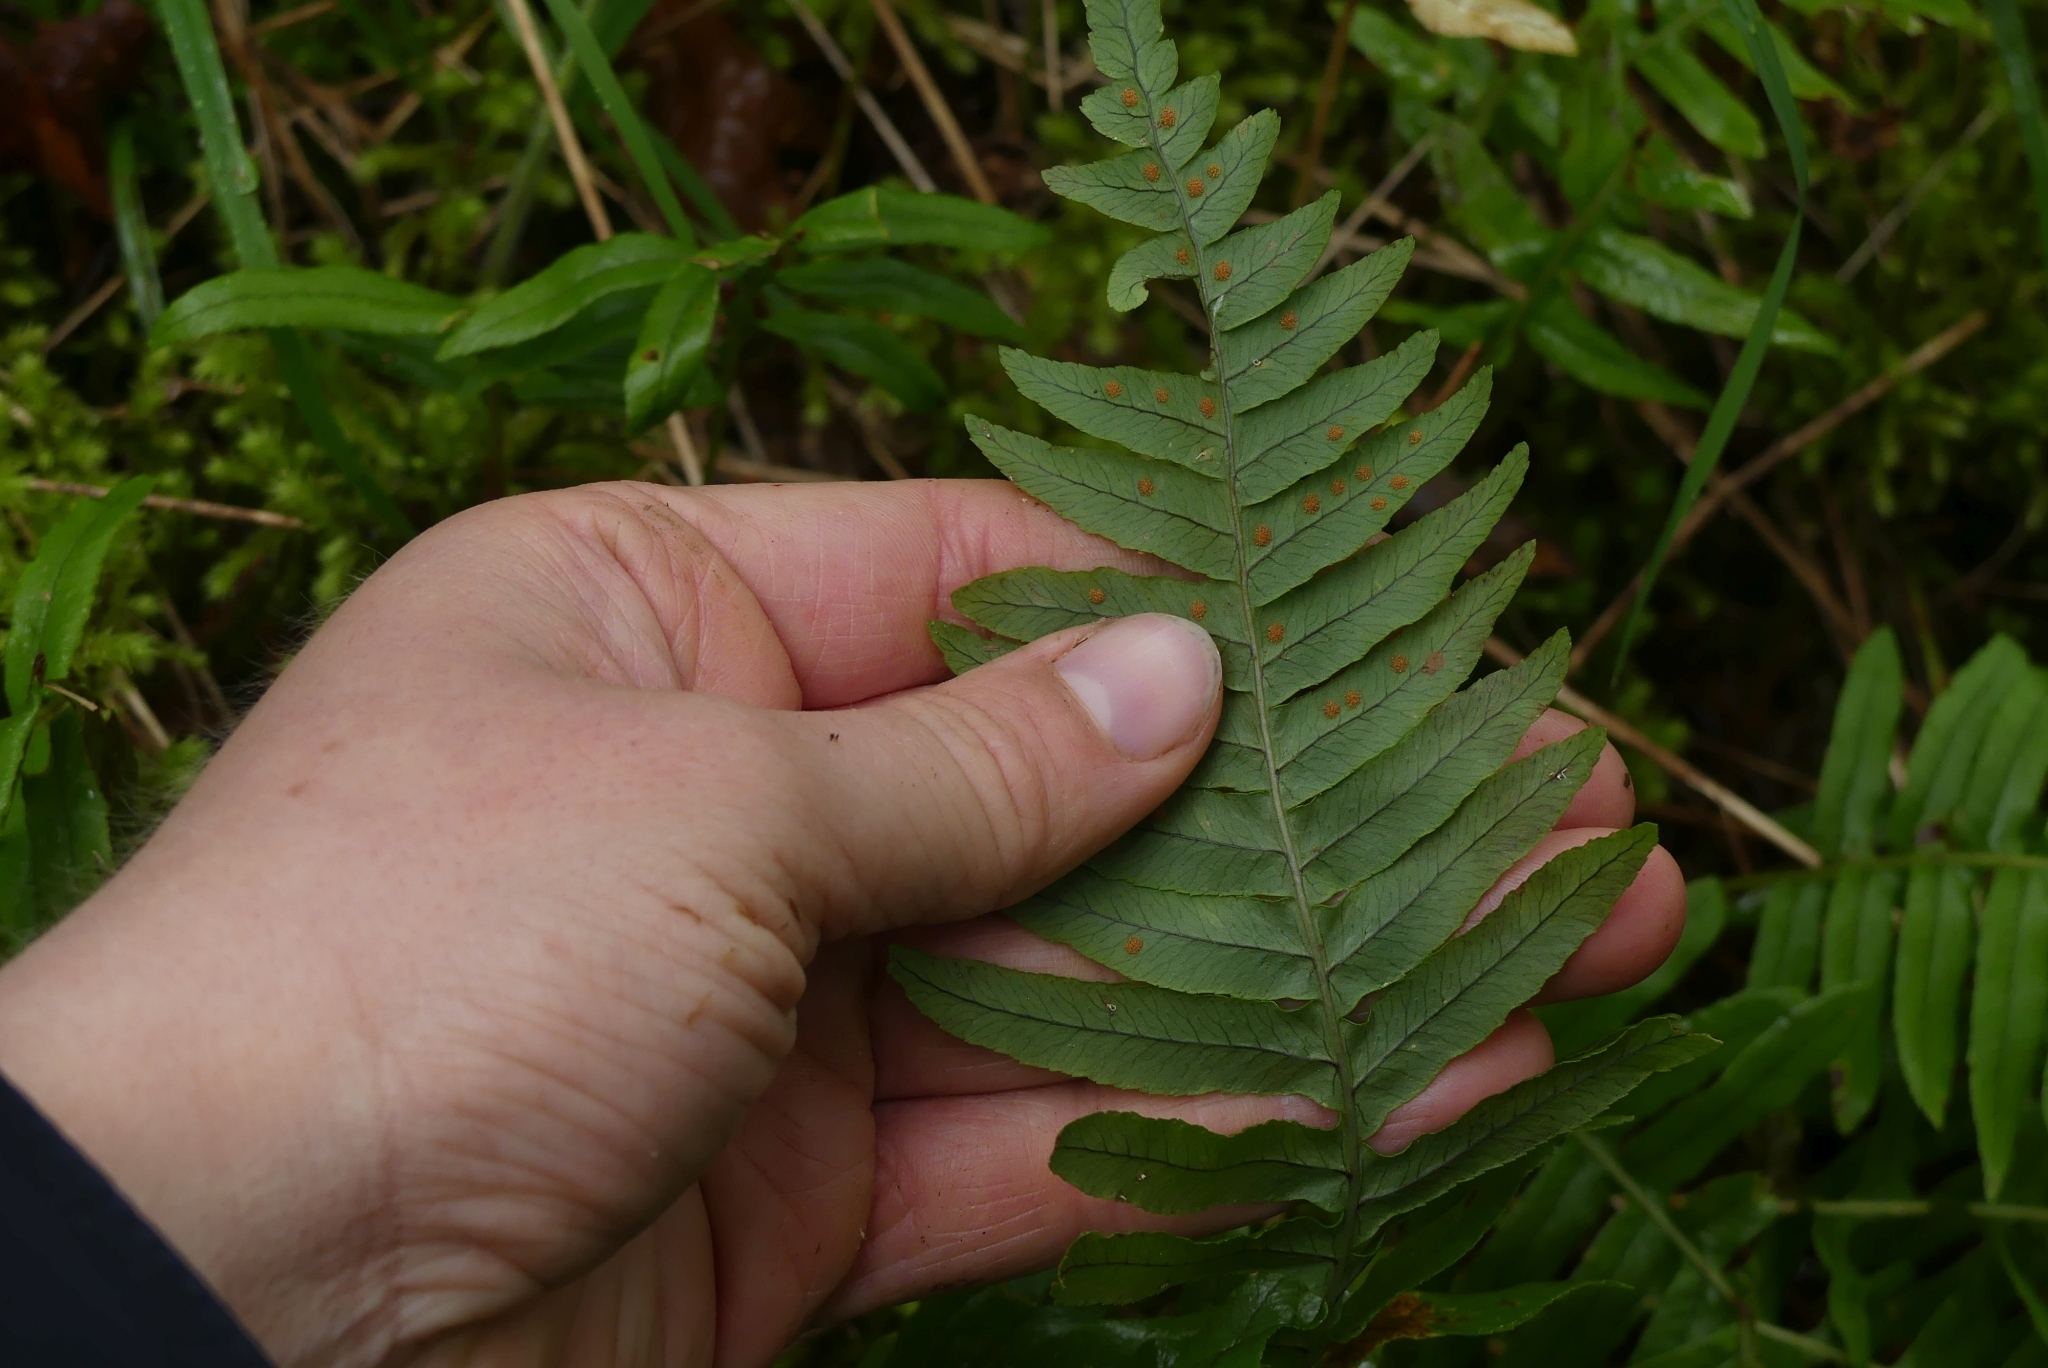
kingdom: Plantae
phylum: Tracheophyta
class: Polypodiopsida
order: Polypodiales
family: Polypodiaceae
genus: Polypodium
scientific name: Polypodium glycyrrhiza
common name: Licorice fern
